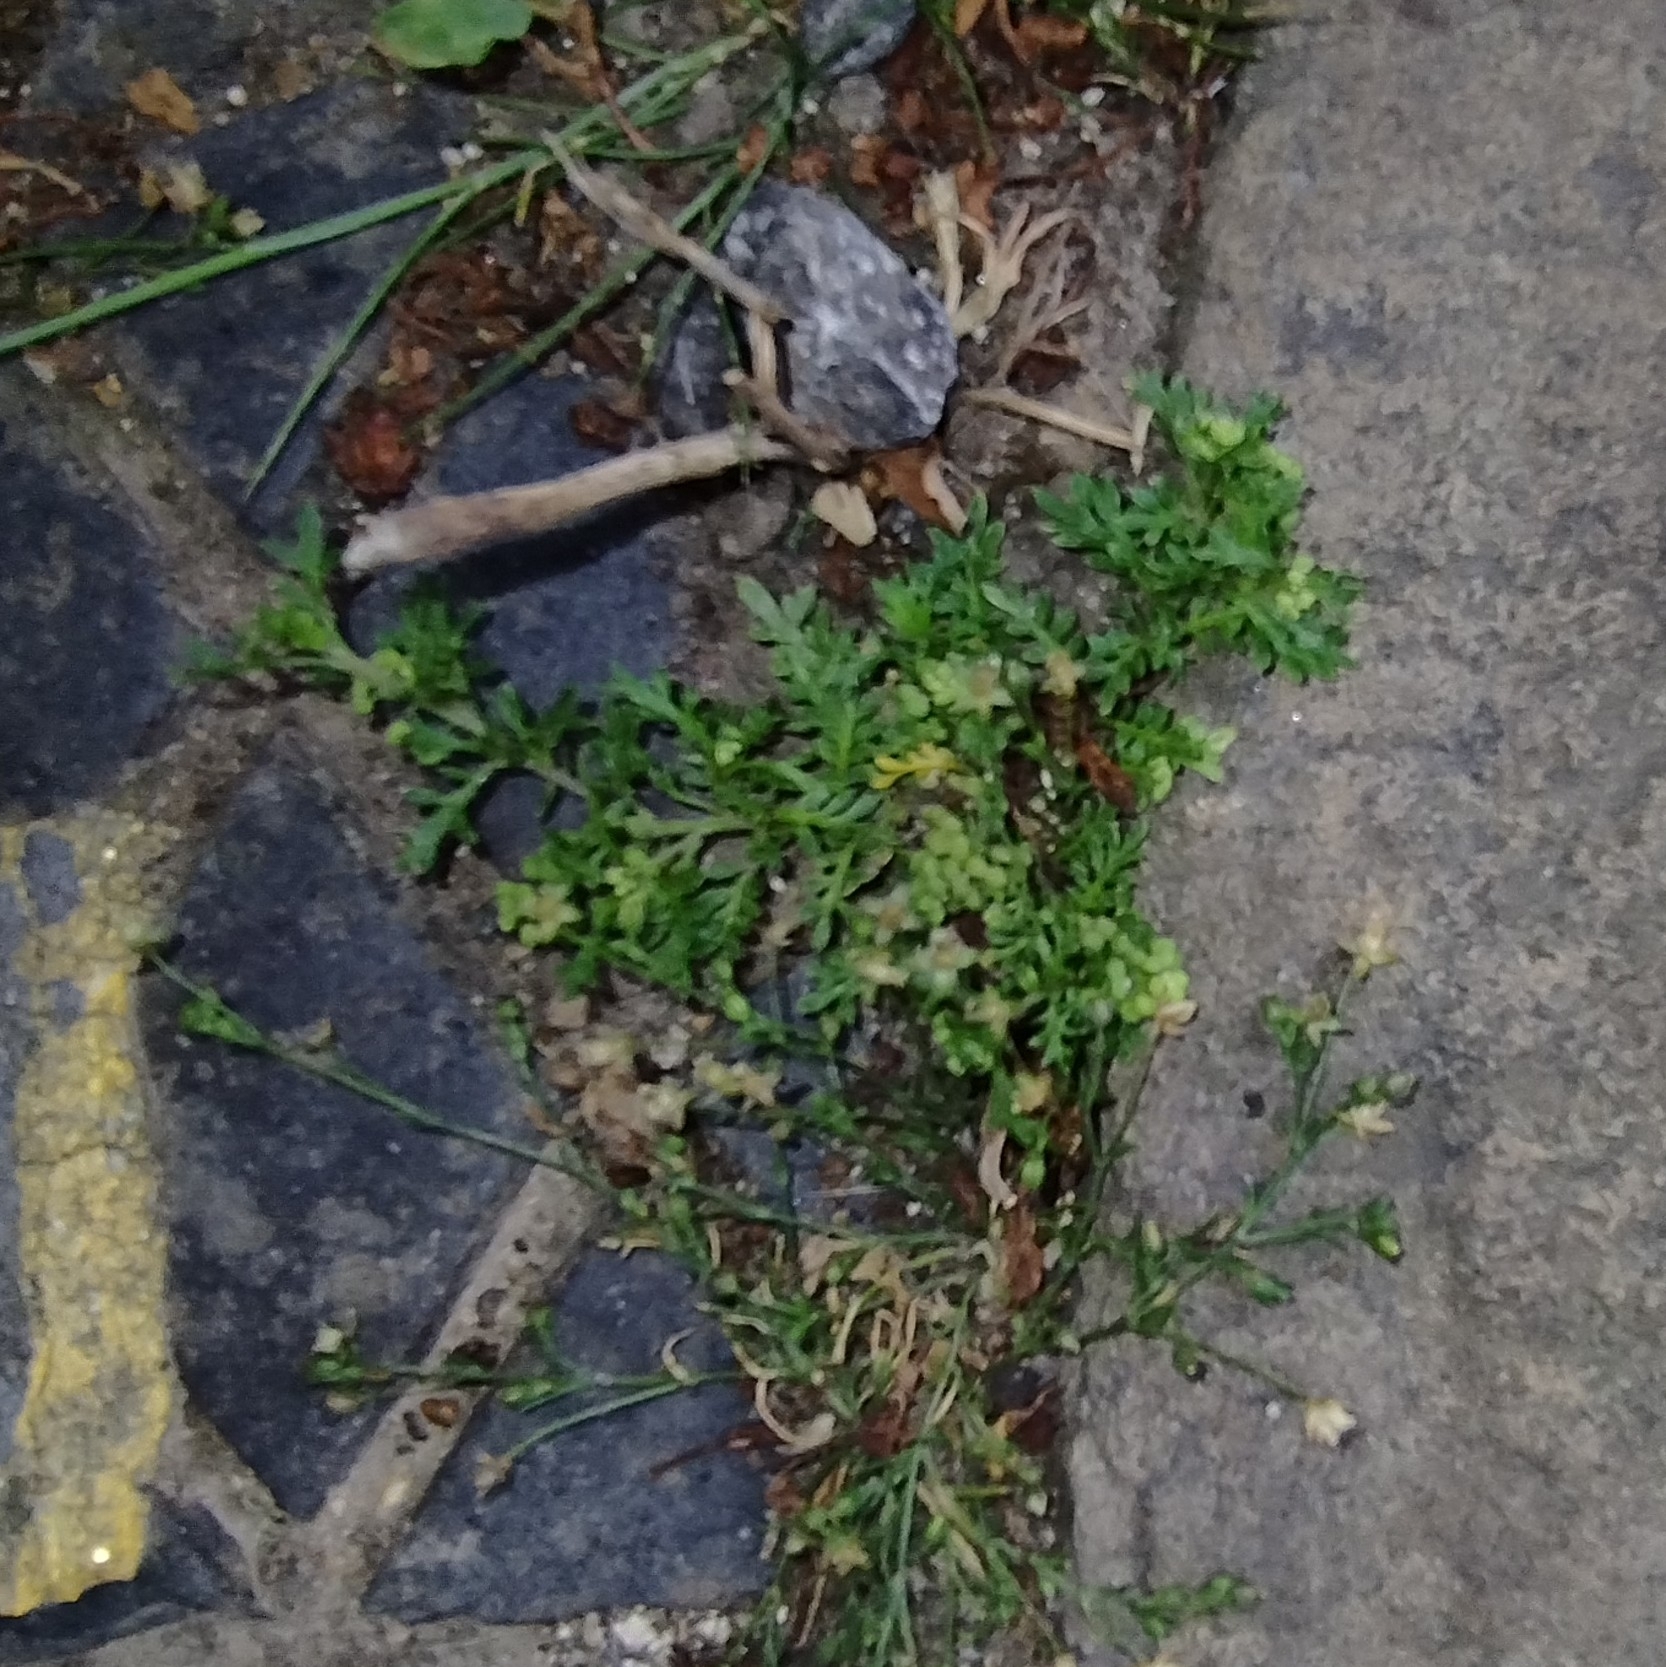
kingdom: Plantae
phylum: Tracheophyta
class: Magnoliopsida
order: Brassicales
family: Brassicaceae
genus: Lepidium
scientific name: Lepidium didymum
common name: Lesser swinecress
